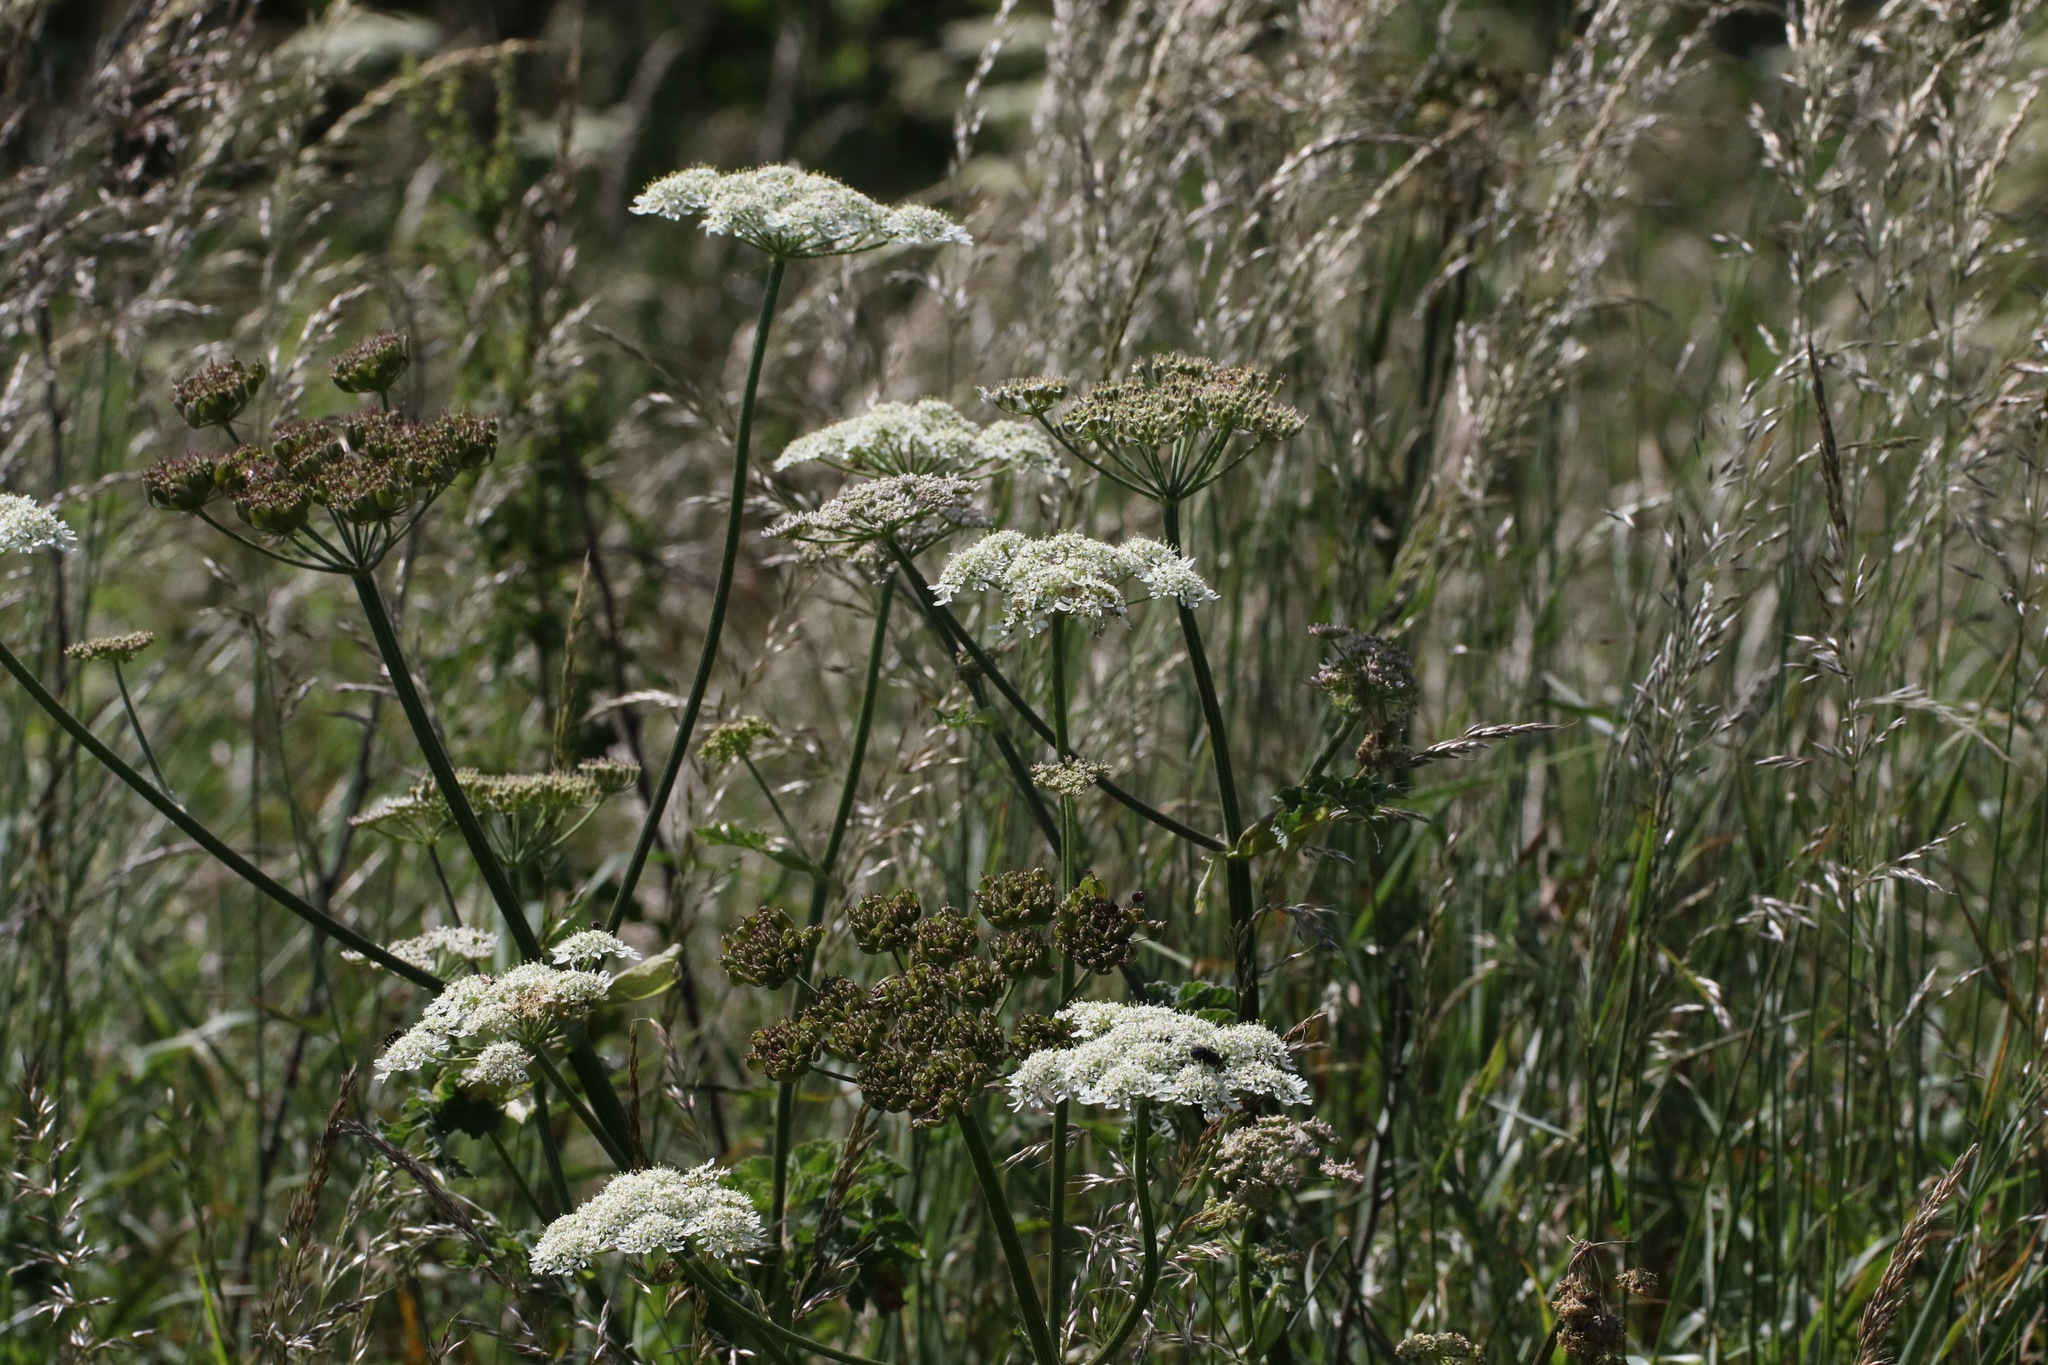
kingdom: Plantae
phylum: Tracheophyta
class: Magnoliopsida
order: Apiales
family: Apiaceae
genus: Heracleum
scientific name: Heracleum sphondylium
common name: Hogweed
